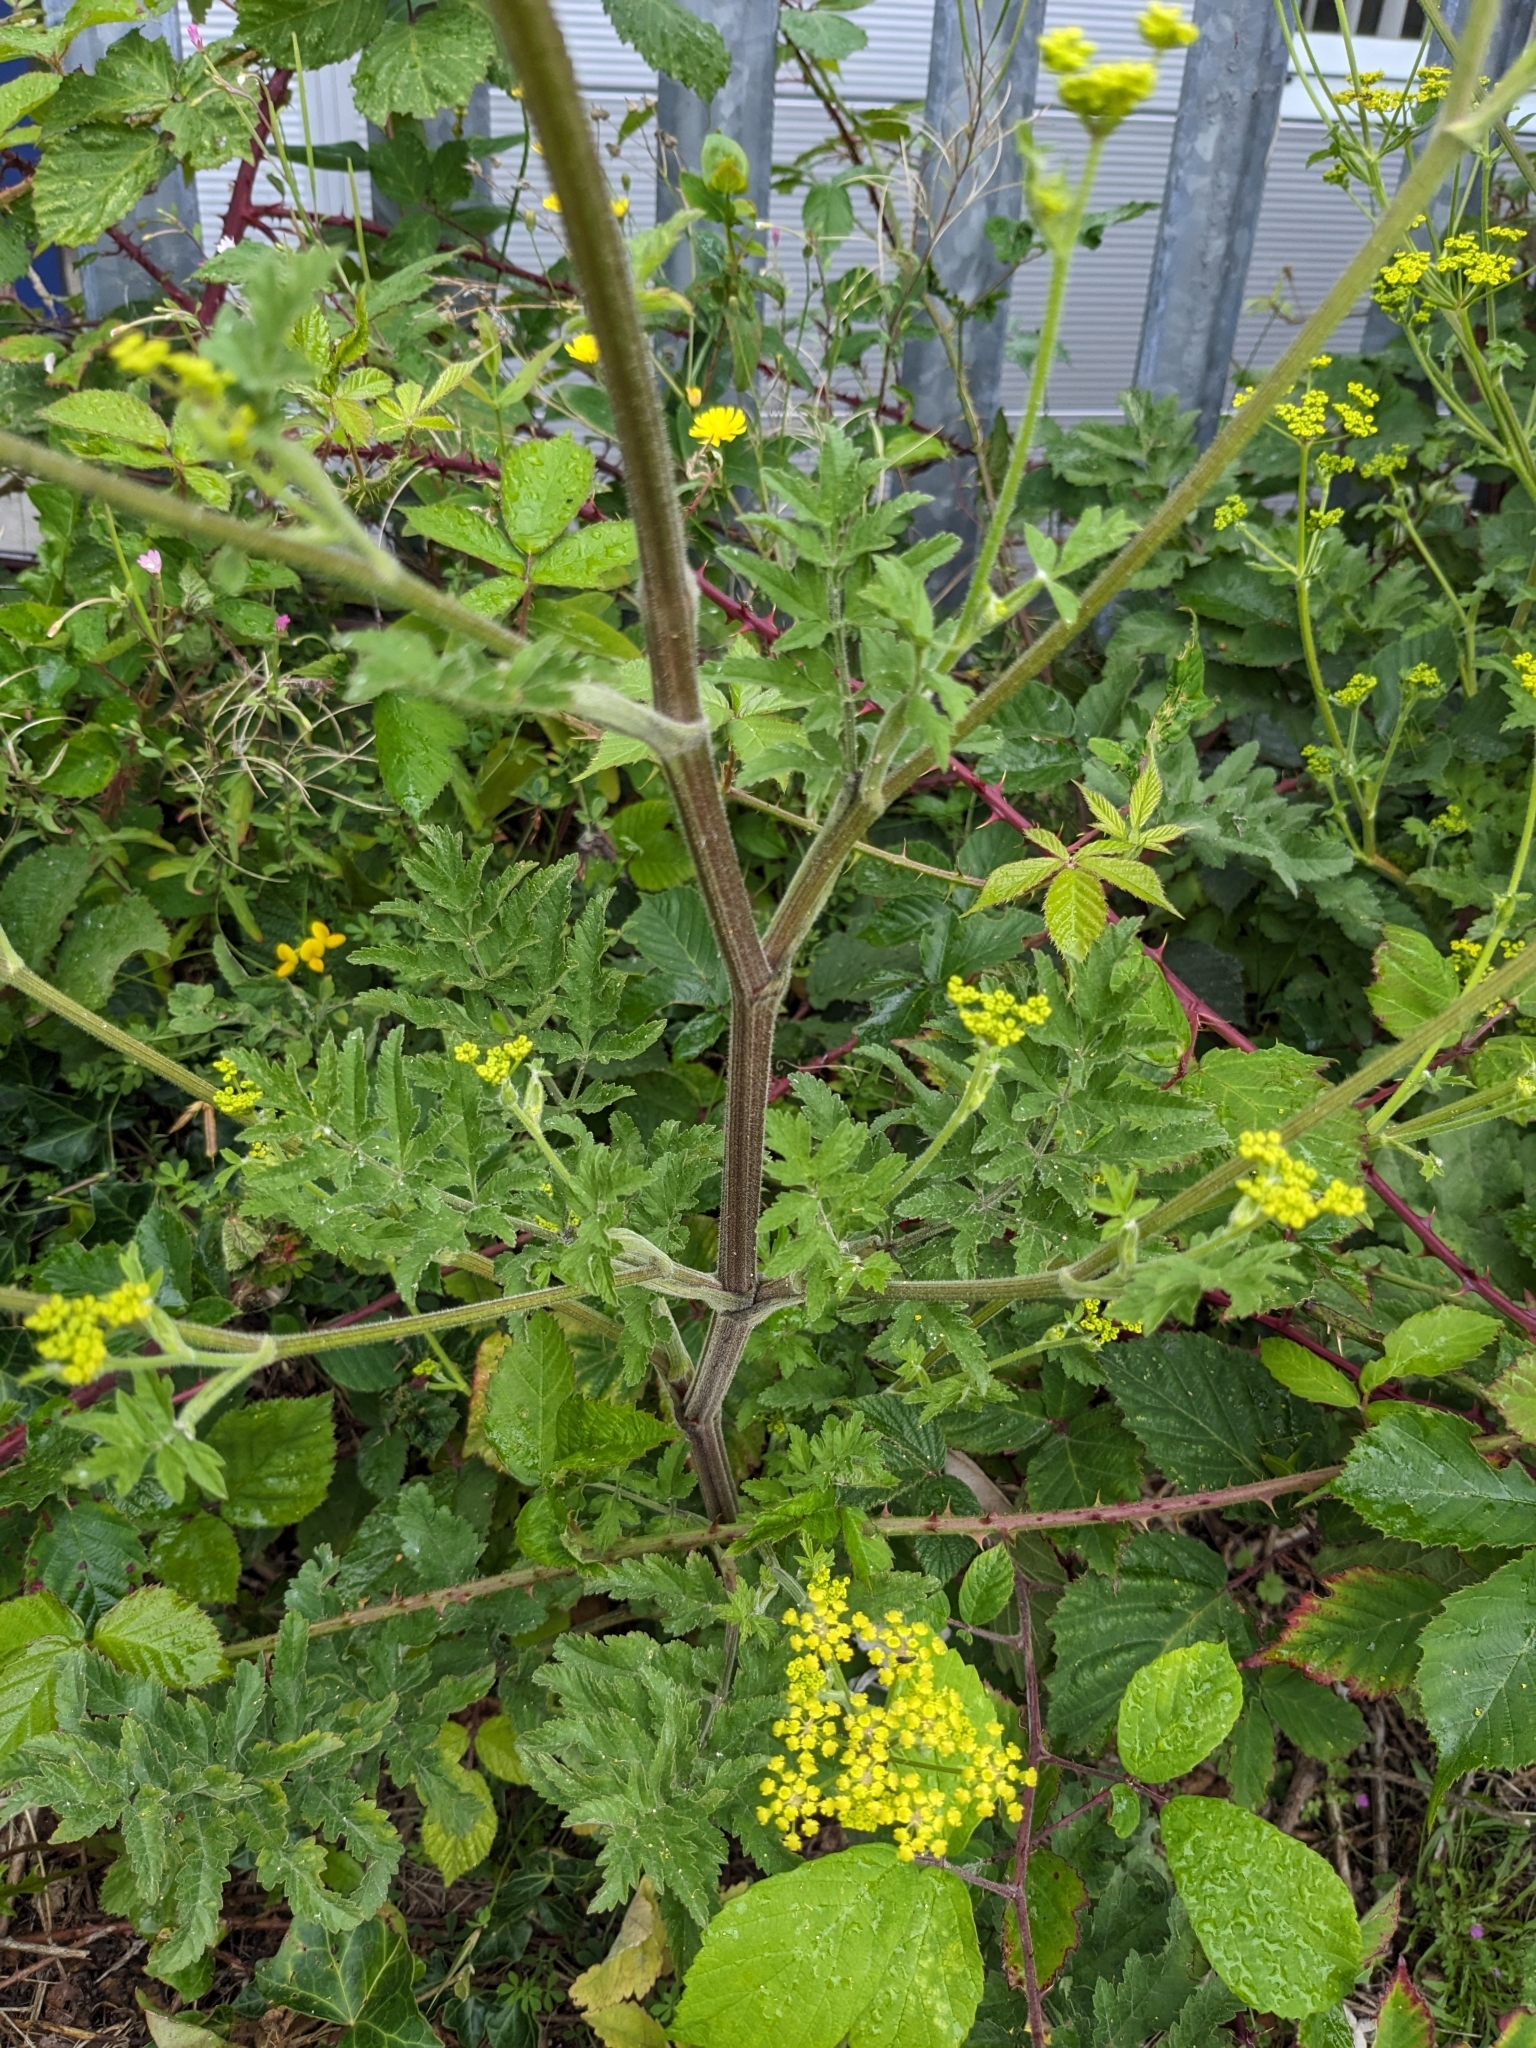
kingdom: Plantae
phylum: Tracheophyta
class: Magnoliopsida
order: Apiales
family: Apiaceae
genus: Pastinaca
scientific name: Pastinaca sativa
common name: Wild parsnip
